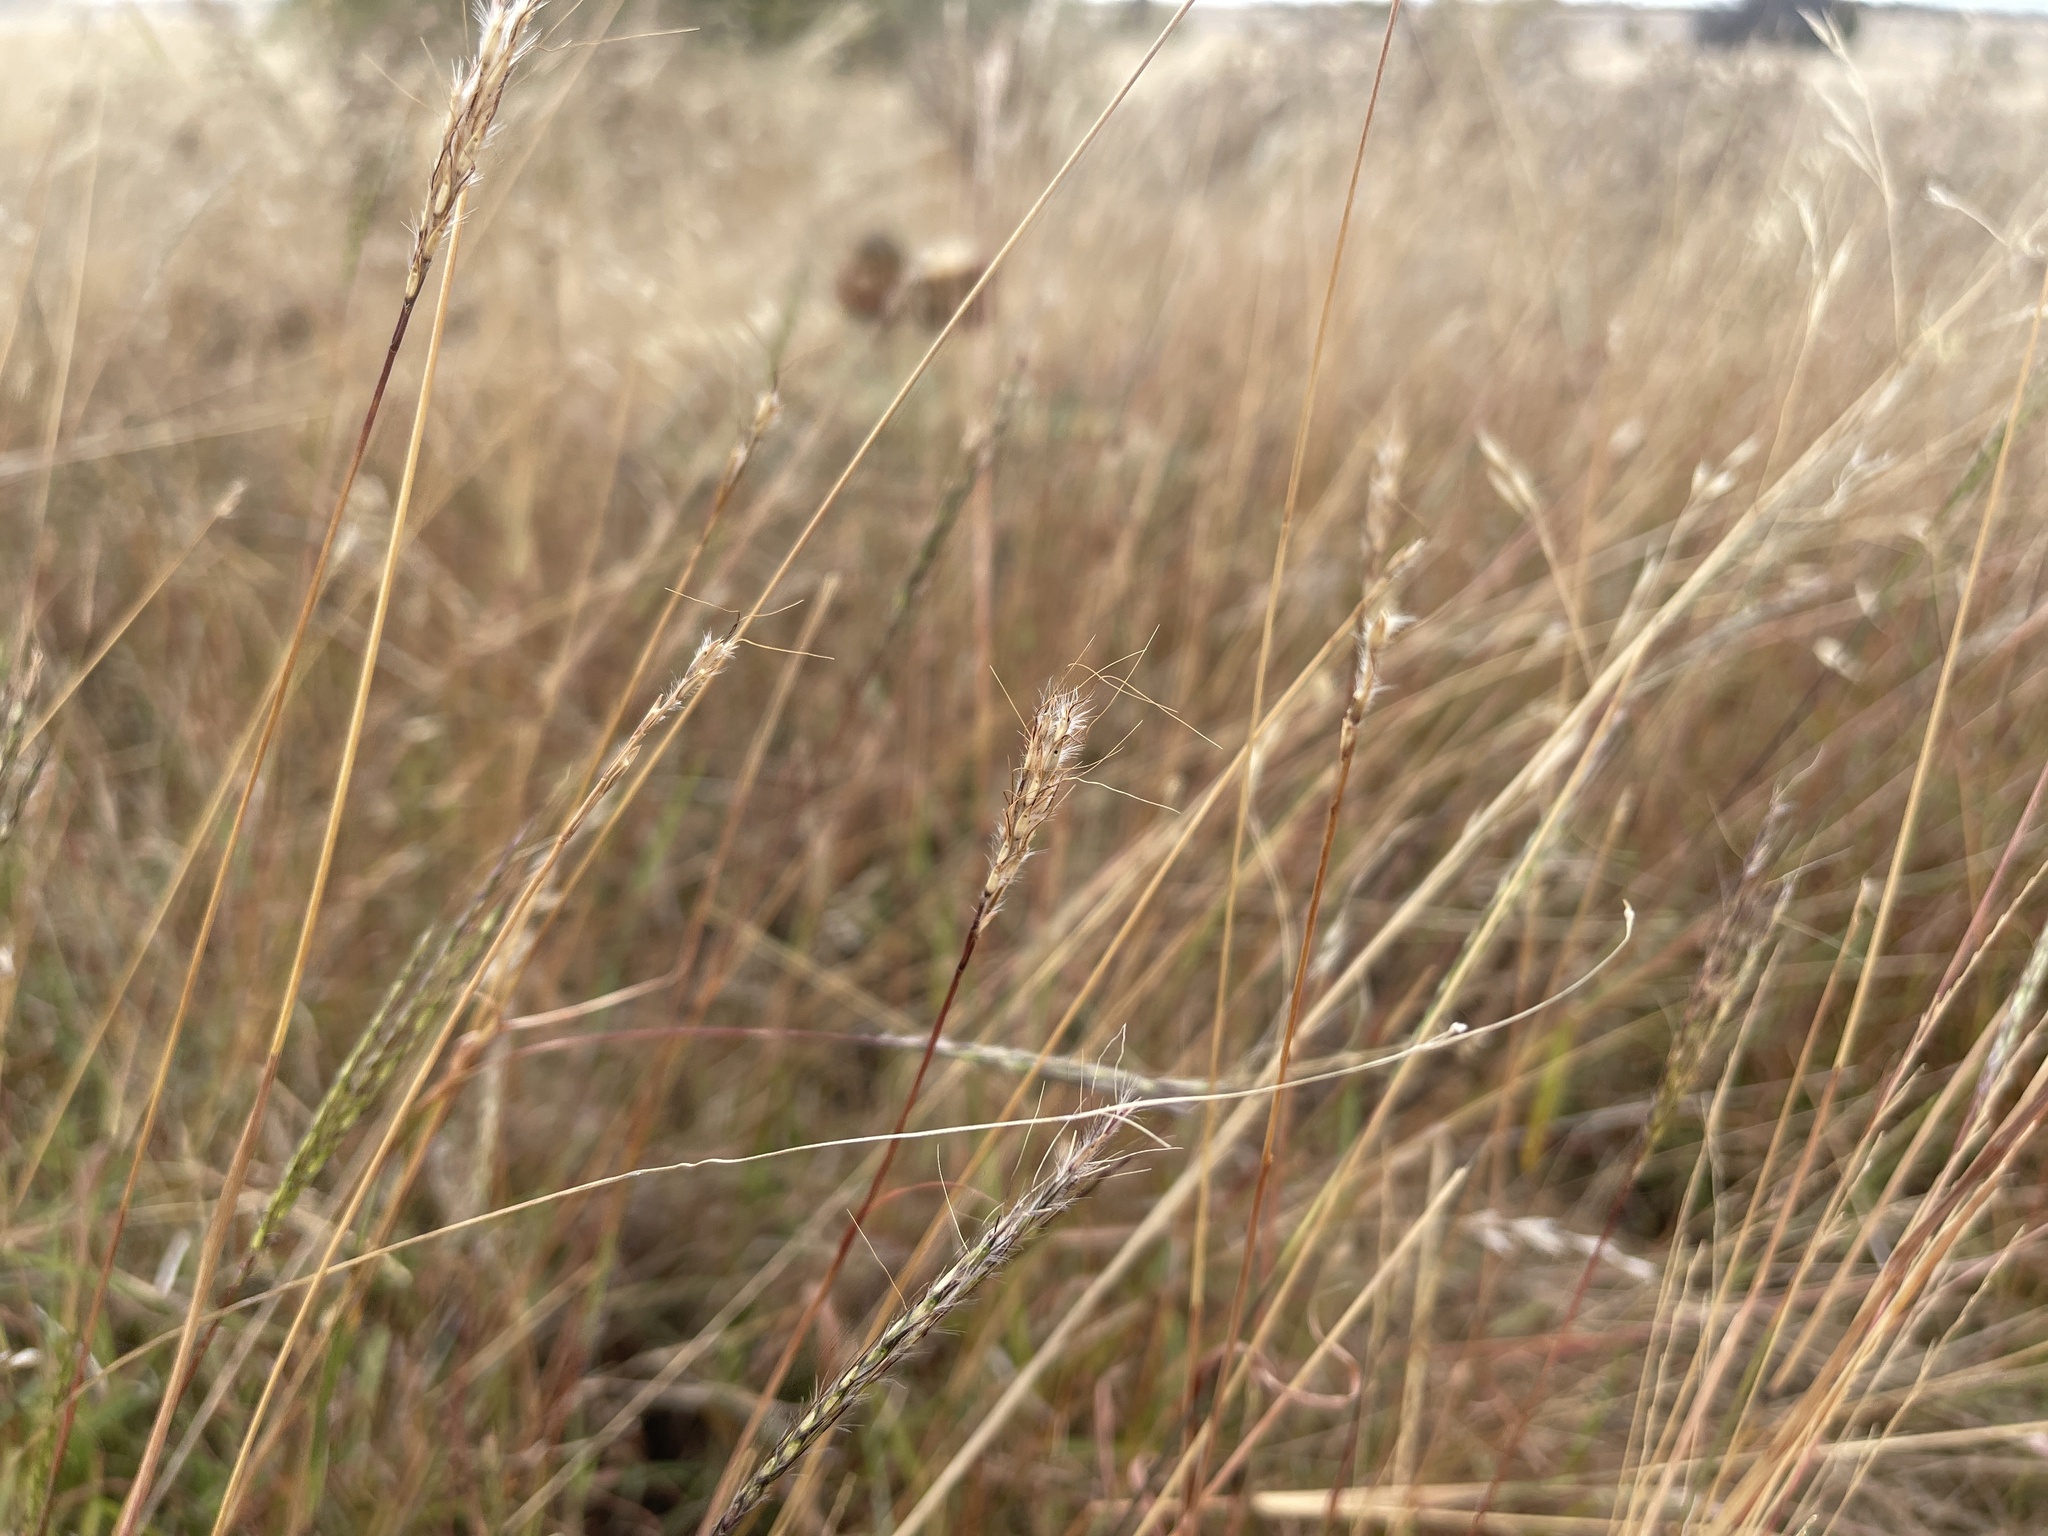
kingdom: Plantae
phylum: Tracheophyta
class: Liliopsida
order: Poales
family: Poaceae
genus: Bothriochloa
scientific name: Bothriochloa macra
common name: Pitted beard grass
